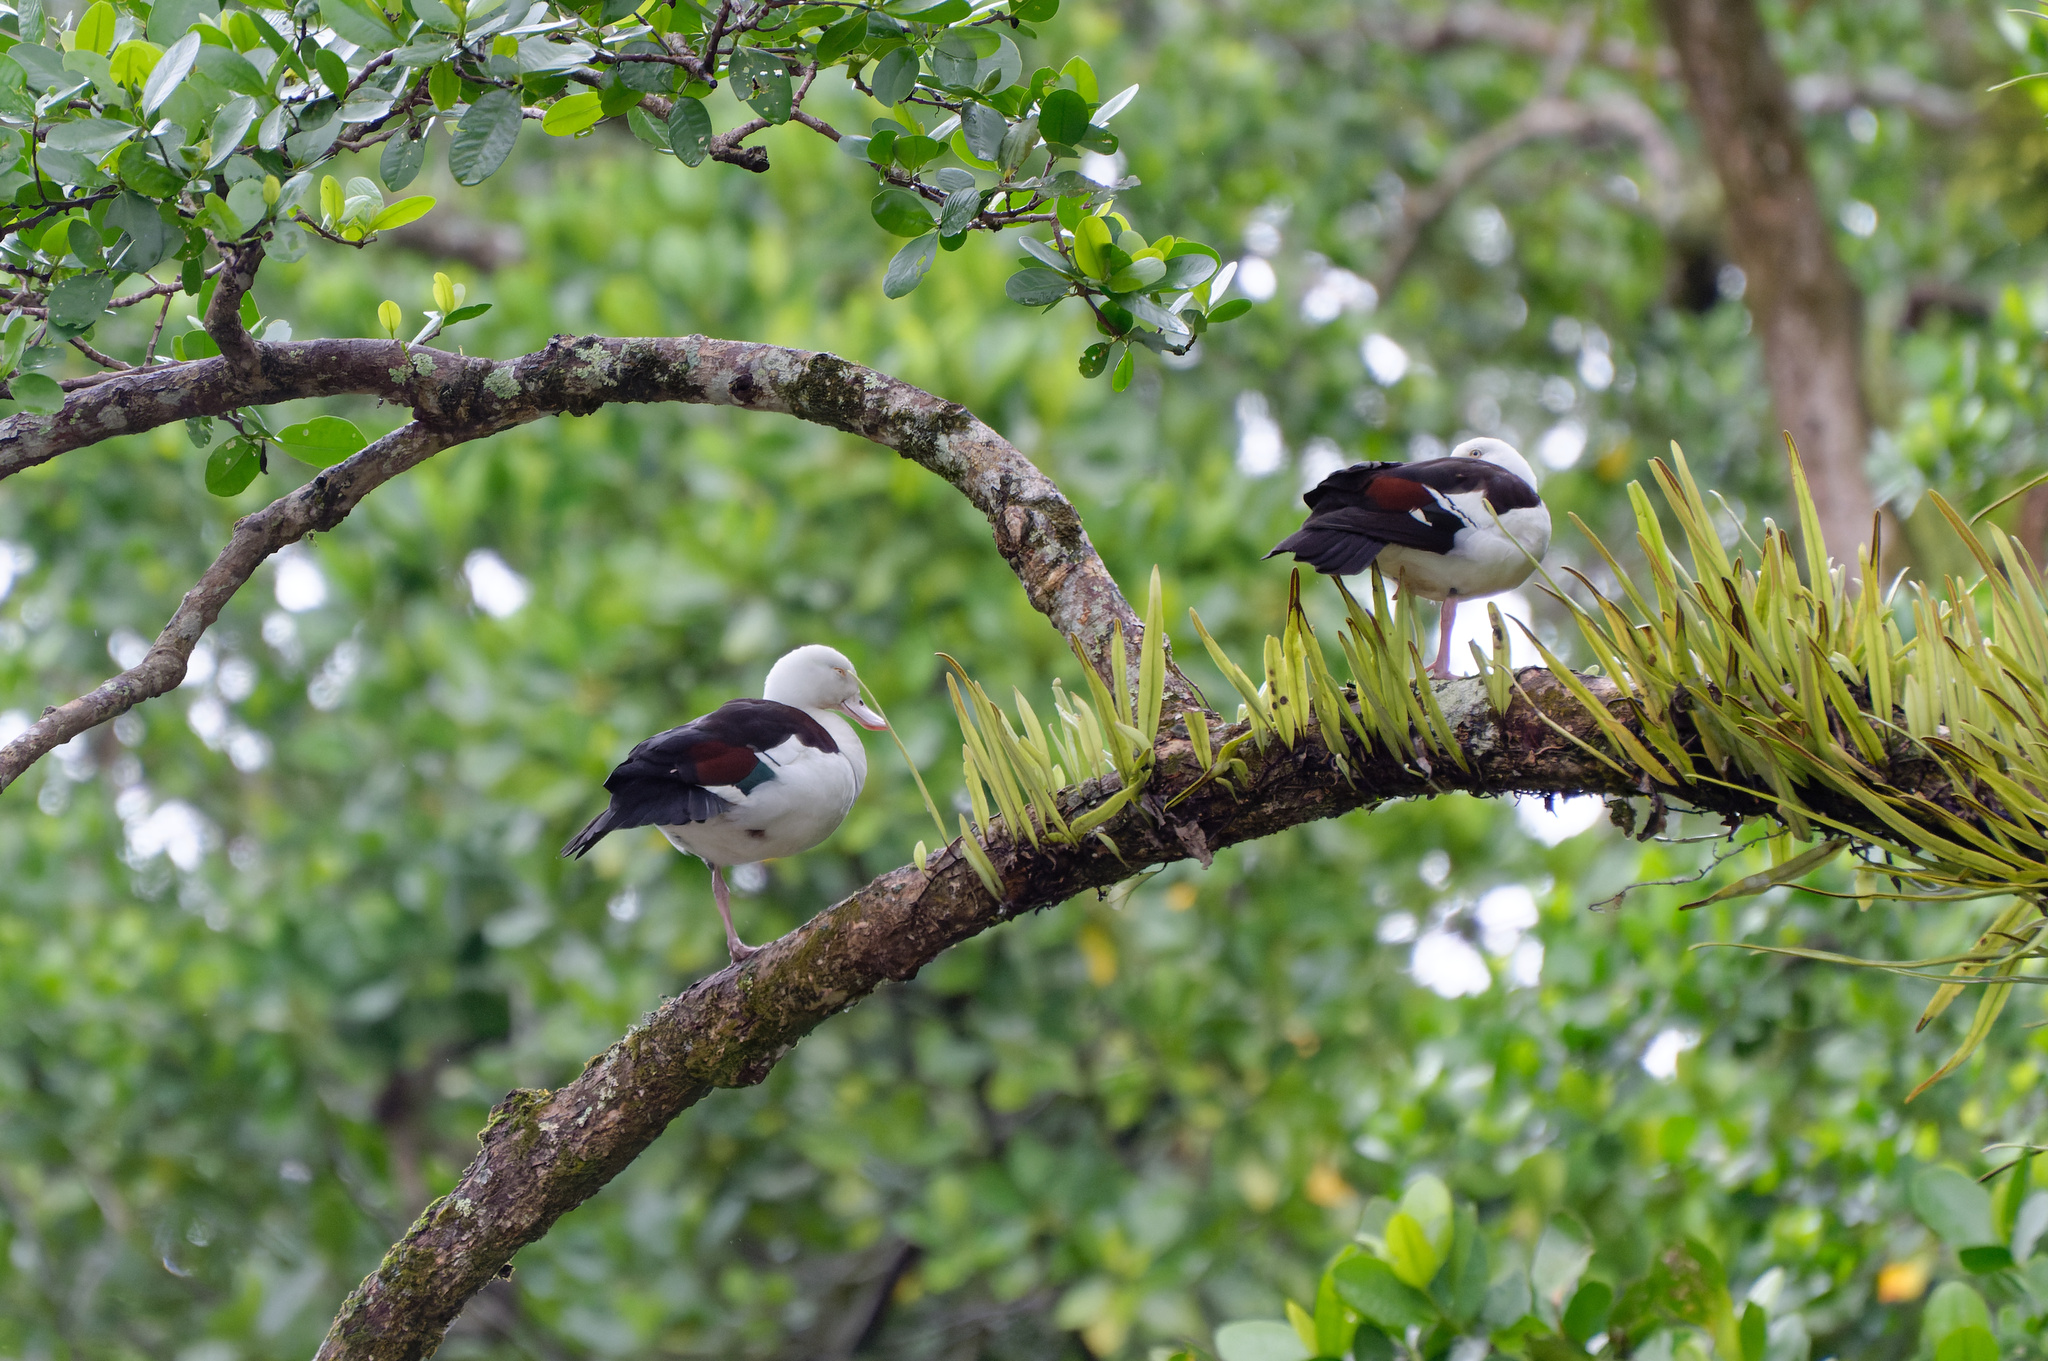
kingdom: Animalia
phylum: Chordata
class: Aves
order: Anseriformes
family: Anatidae
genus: Radjah
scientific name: Radjah radjah
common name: Radjah shelduck
